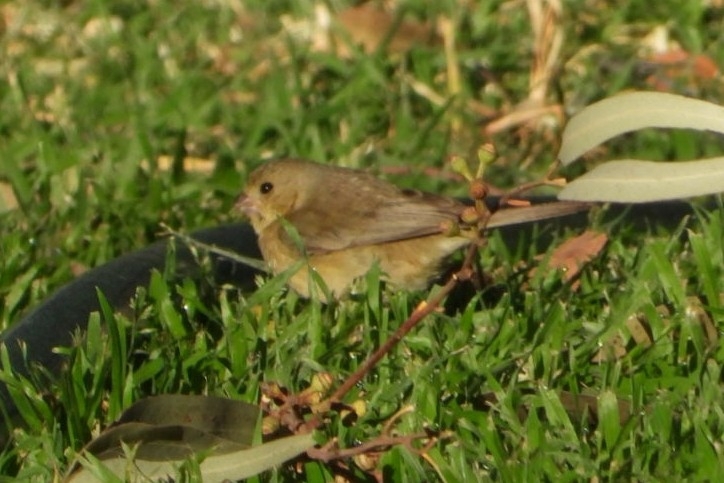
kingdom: Animalia
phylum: Chordata
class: Aves
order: Passeriformes
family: Thraupidae
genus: Sporophila
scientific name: Sporophila torqueola
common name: White-collared seedeater
